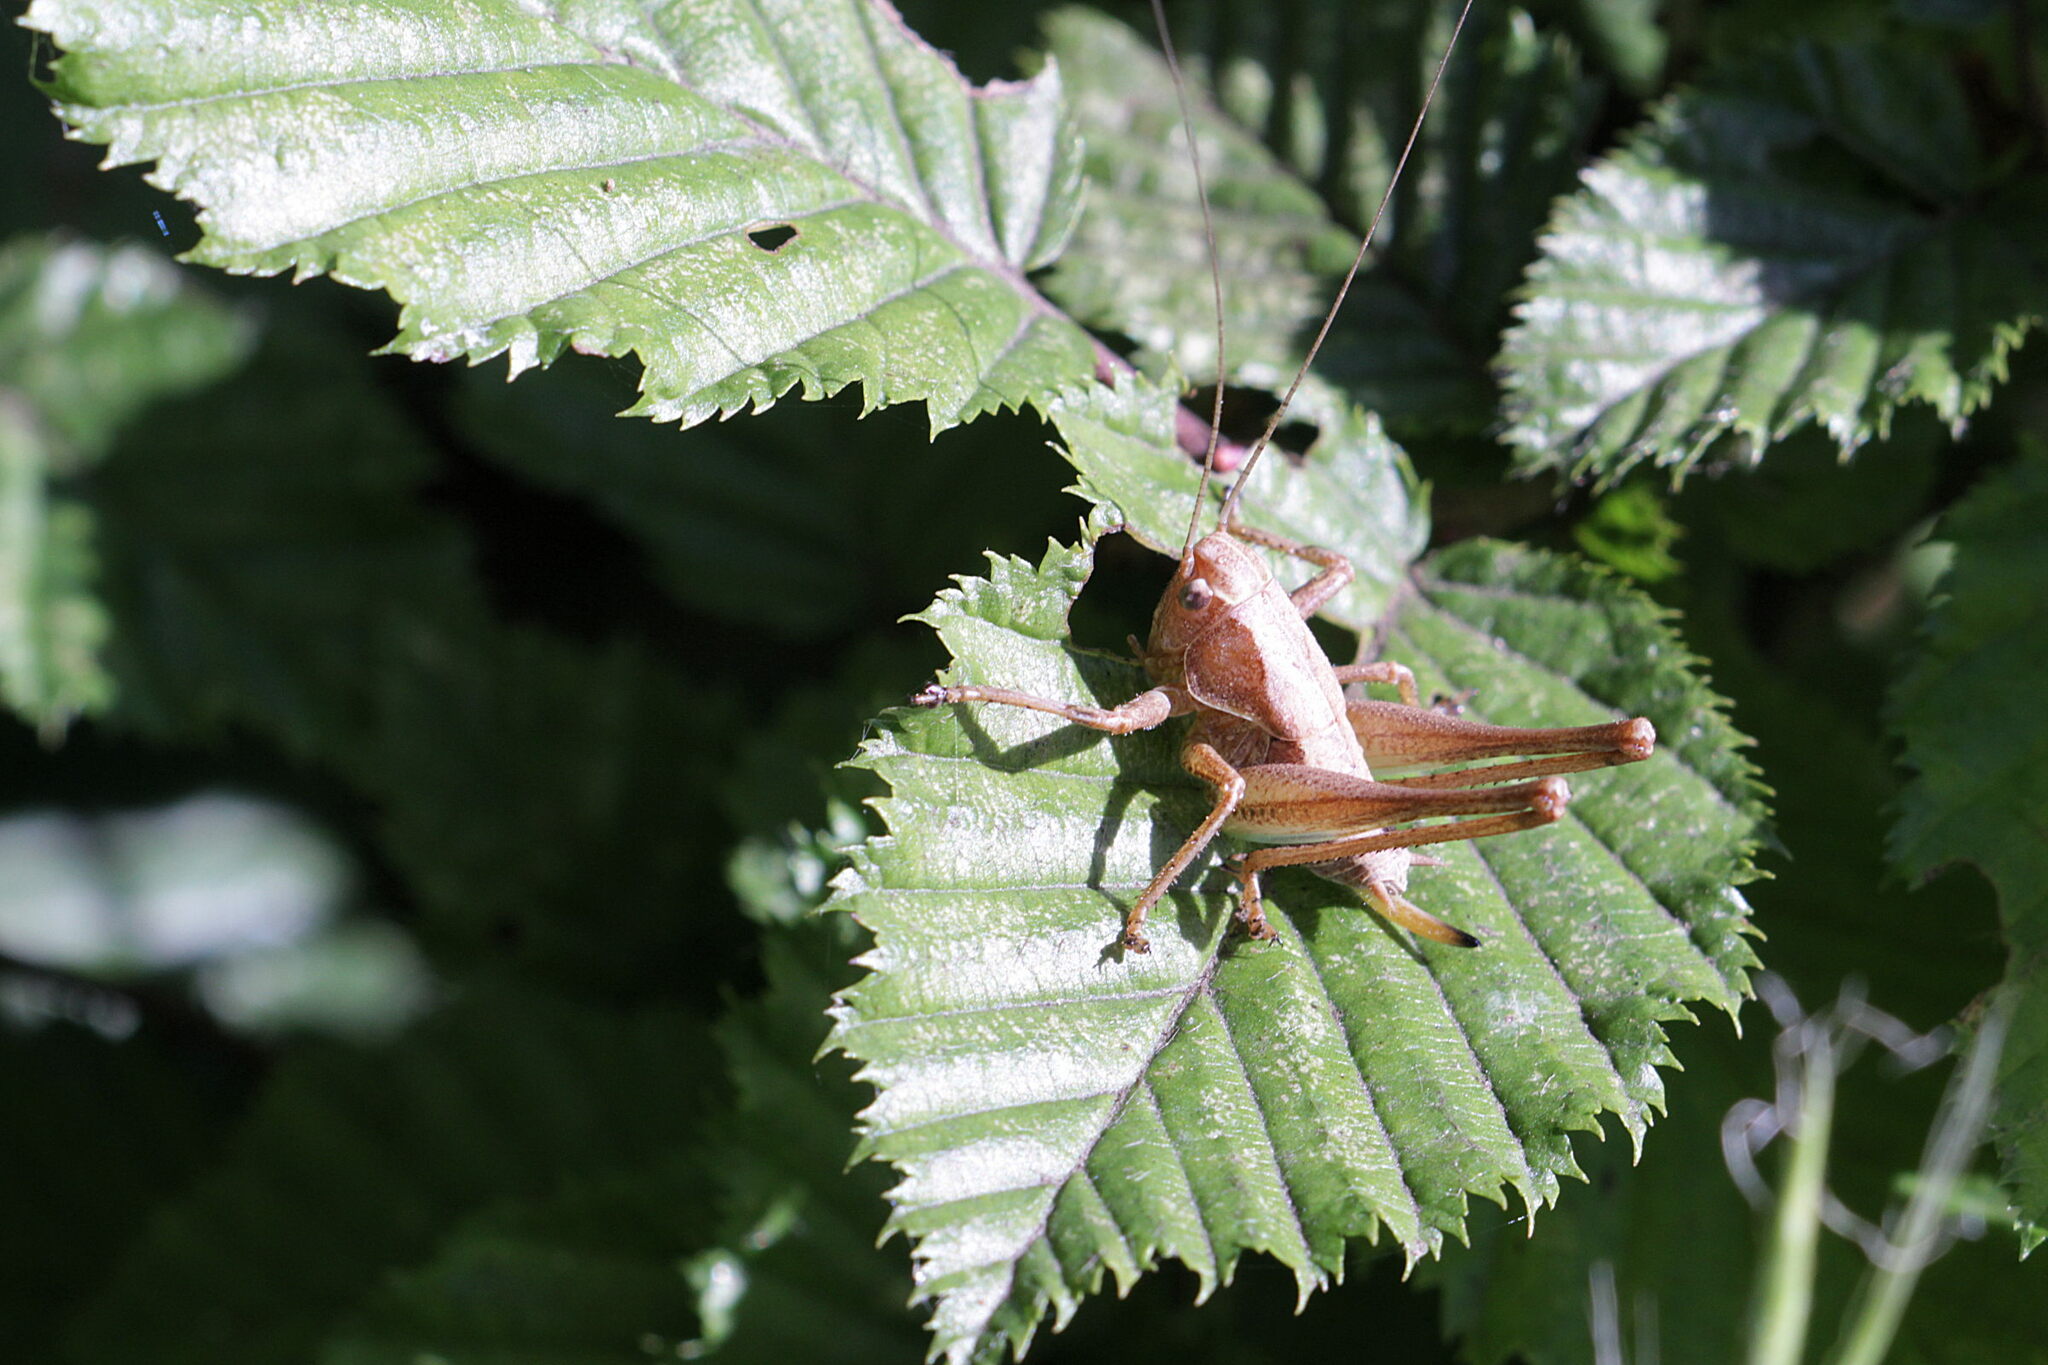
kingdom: Animalia
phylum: Arthropoda
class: Insecta
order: Orthoptera
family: Tettigoniidae
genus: Pholidoptera
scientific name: Pholidoptera griseoaptera
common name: Dark bush-cricket
